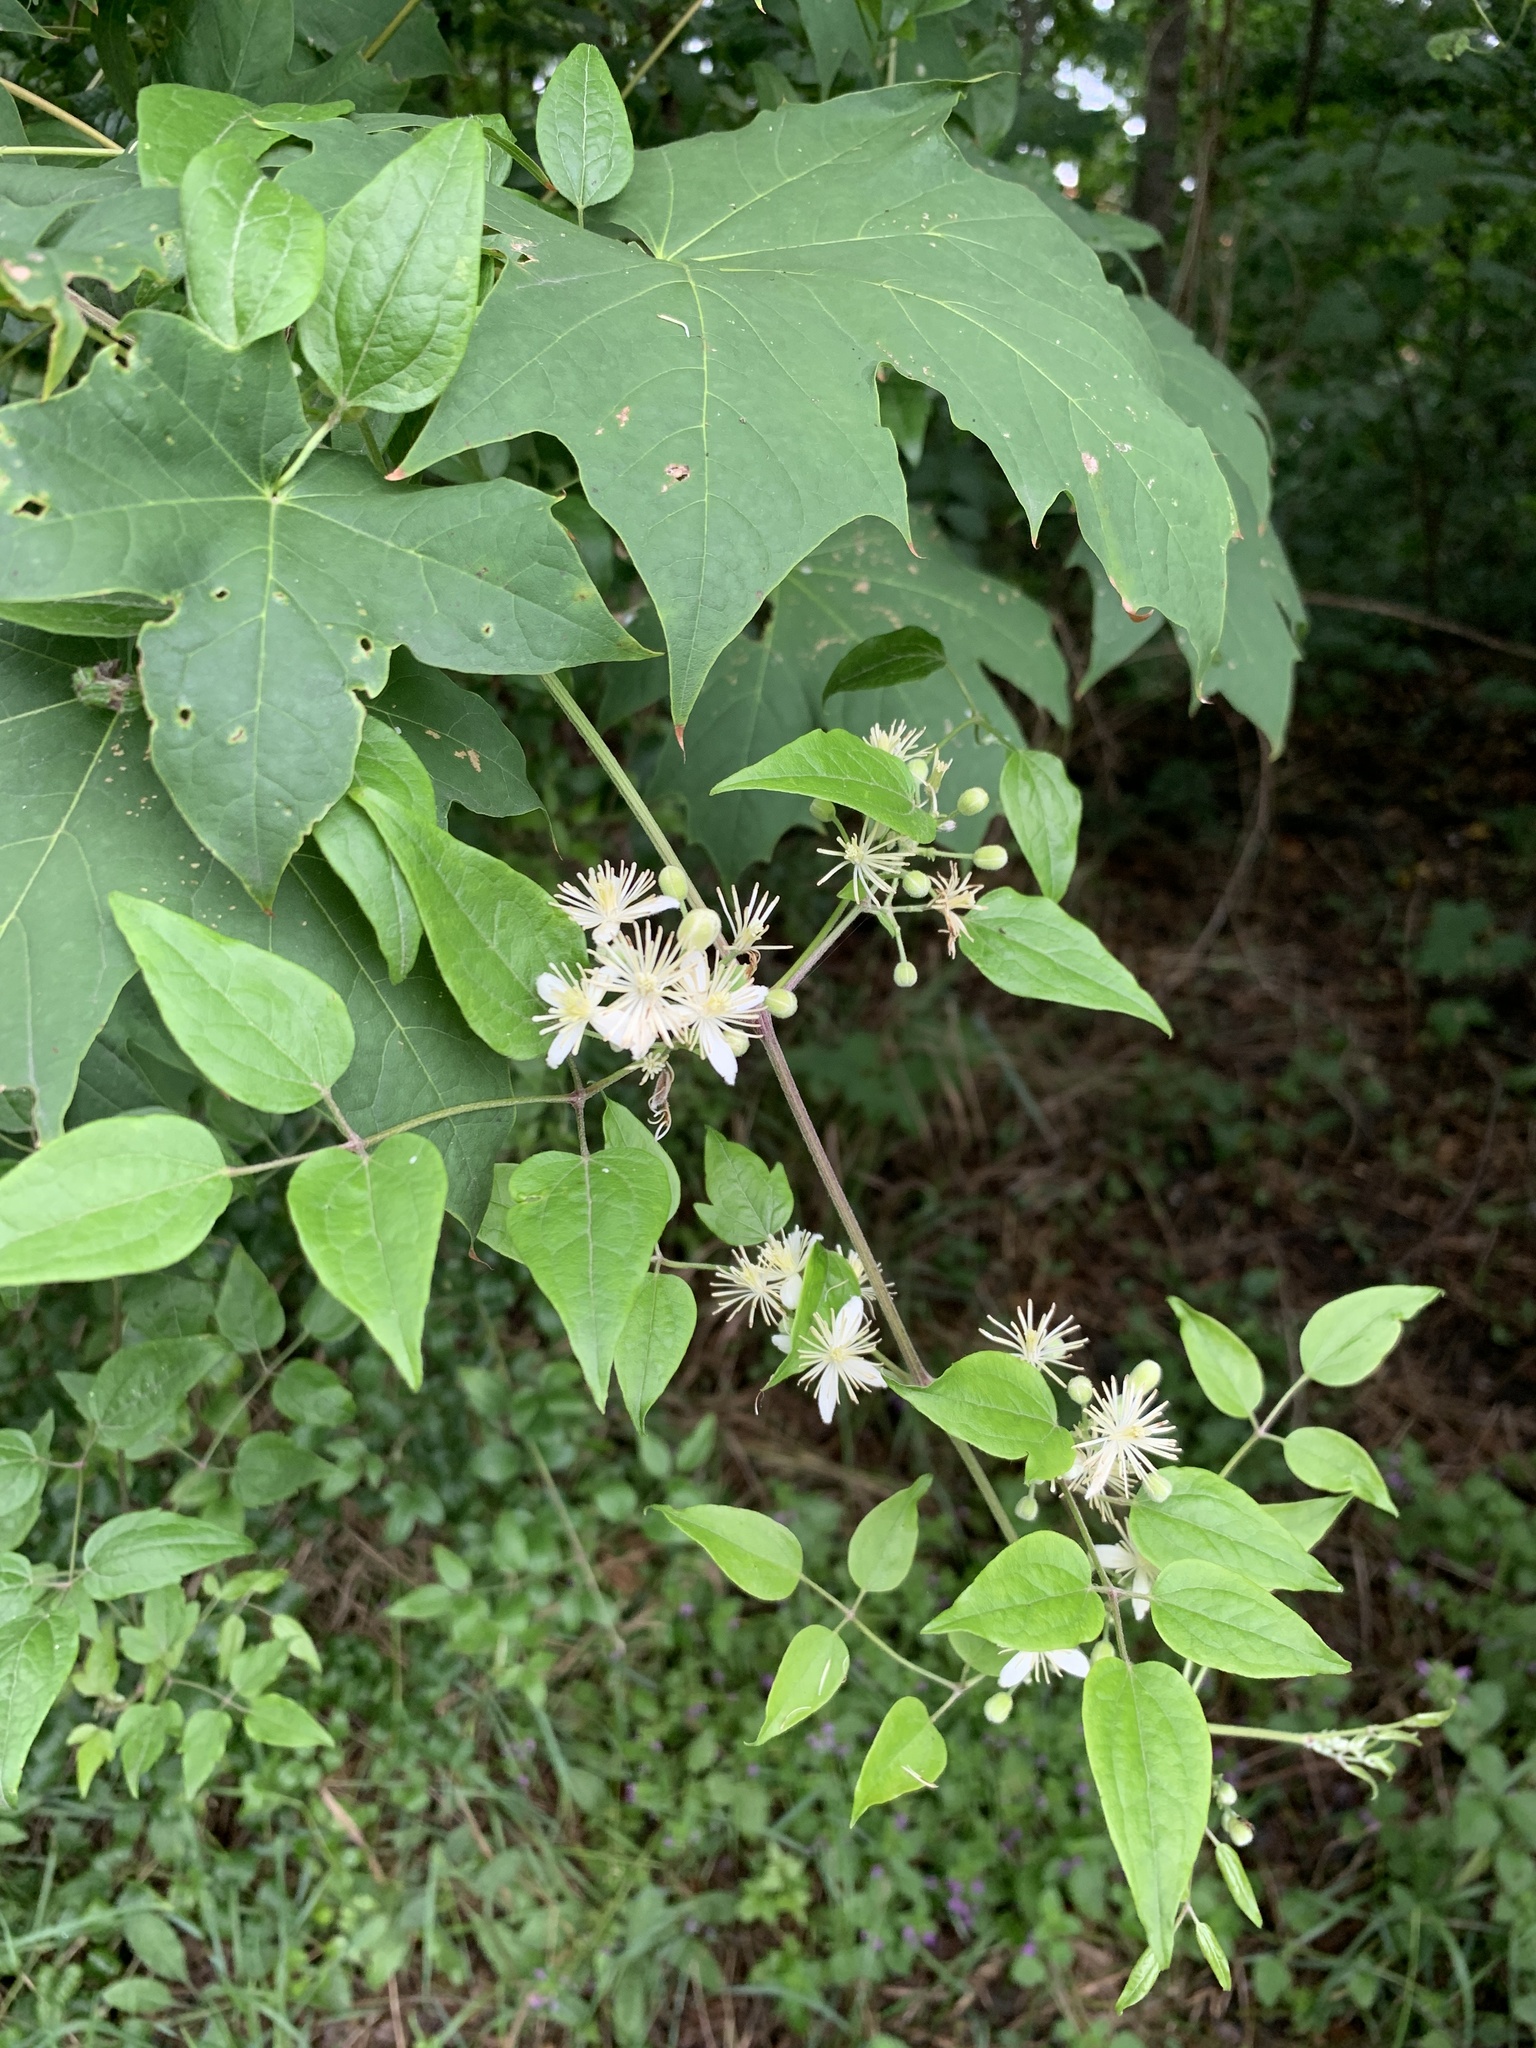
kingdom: Plantae
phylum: Tracheophyta
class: Magnoliopsida
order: Ranunculales
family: Ranunculaceae
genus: Clematis
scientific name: Clematis vitalba
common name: Evergreen clematis
